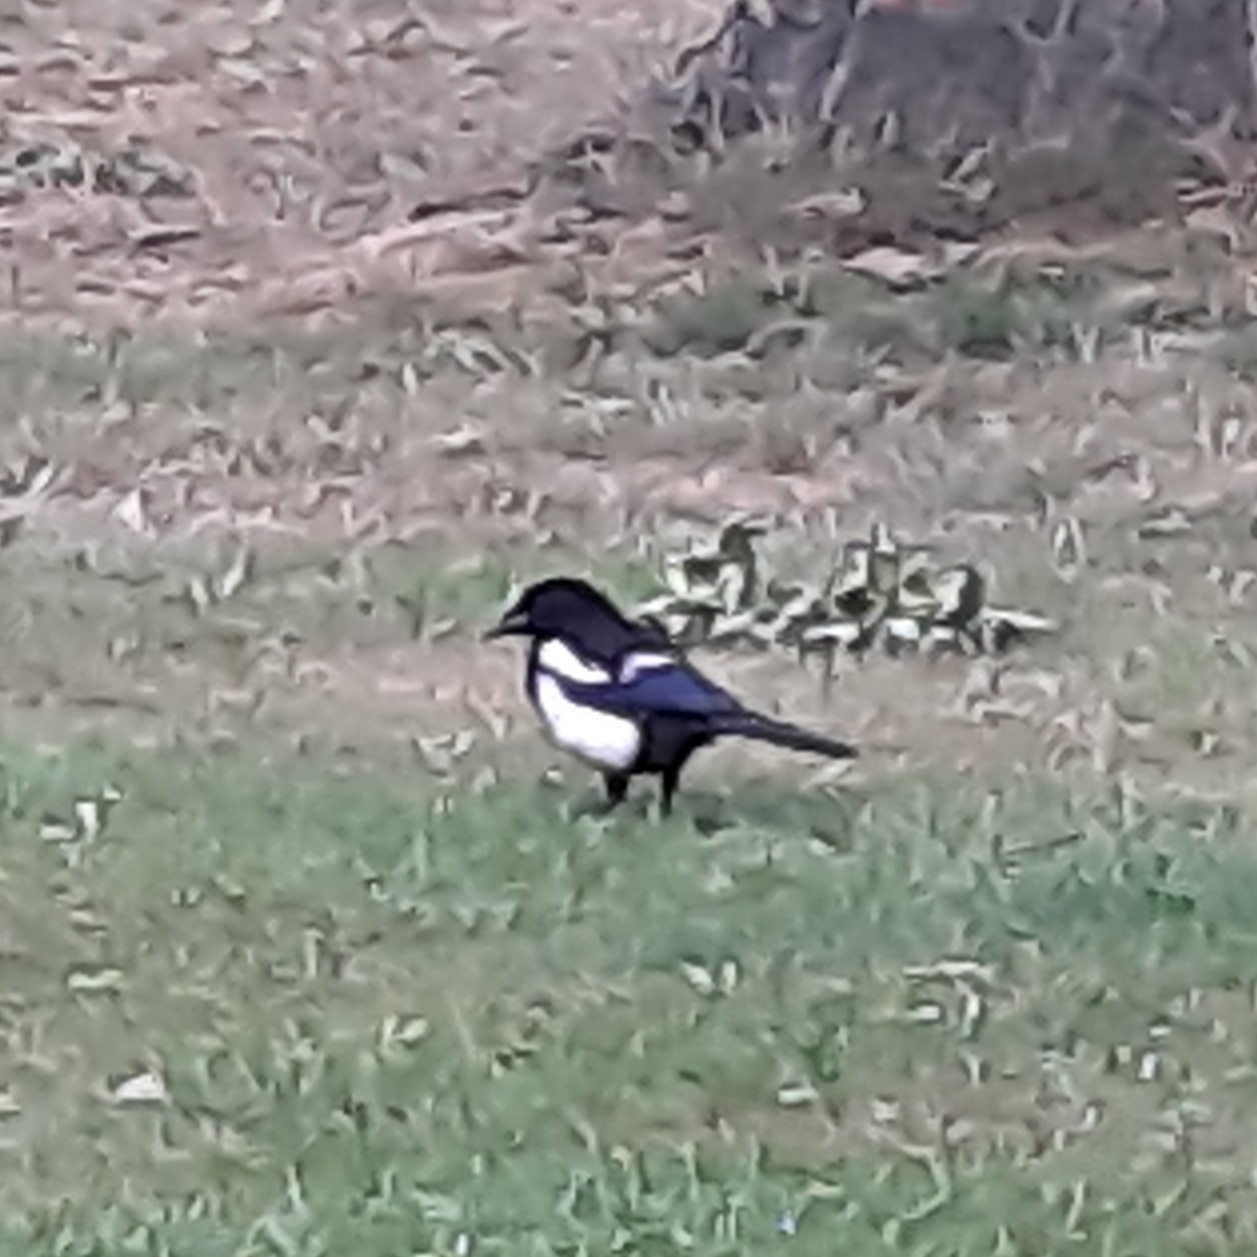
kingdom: Animalia
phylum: Chordata
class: Aves
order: Passeriformes
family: Corvidae
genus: Pica
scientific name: Pica pica
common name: Eurasian magpie
